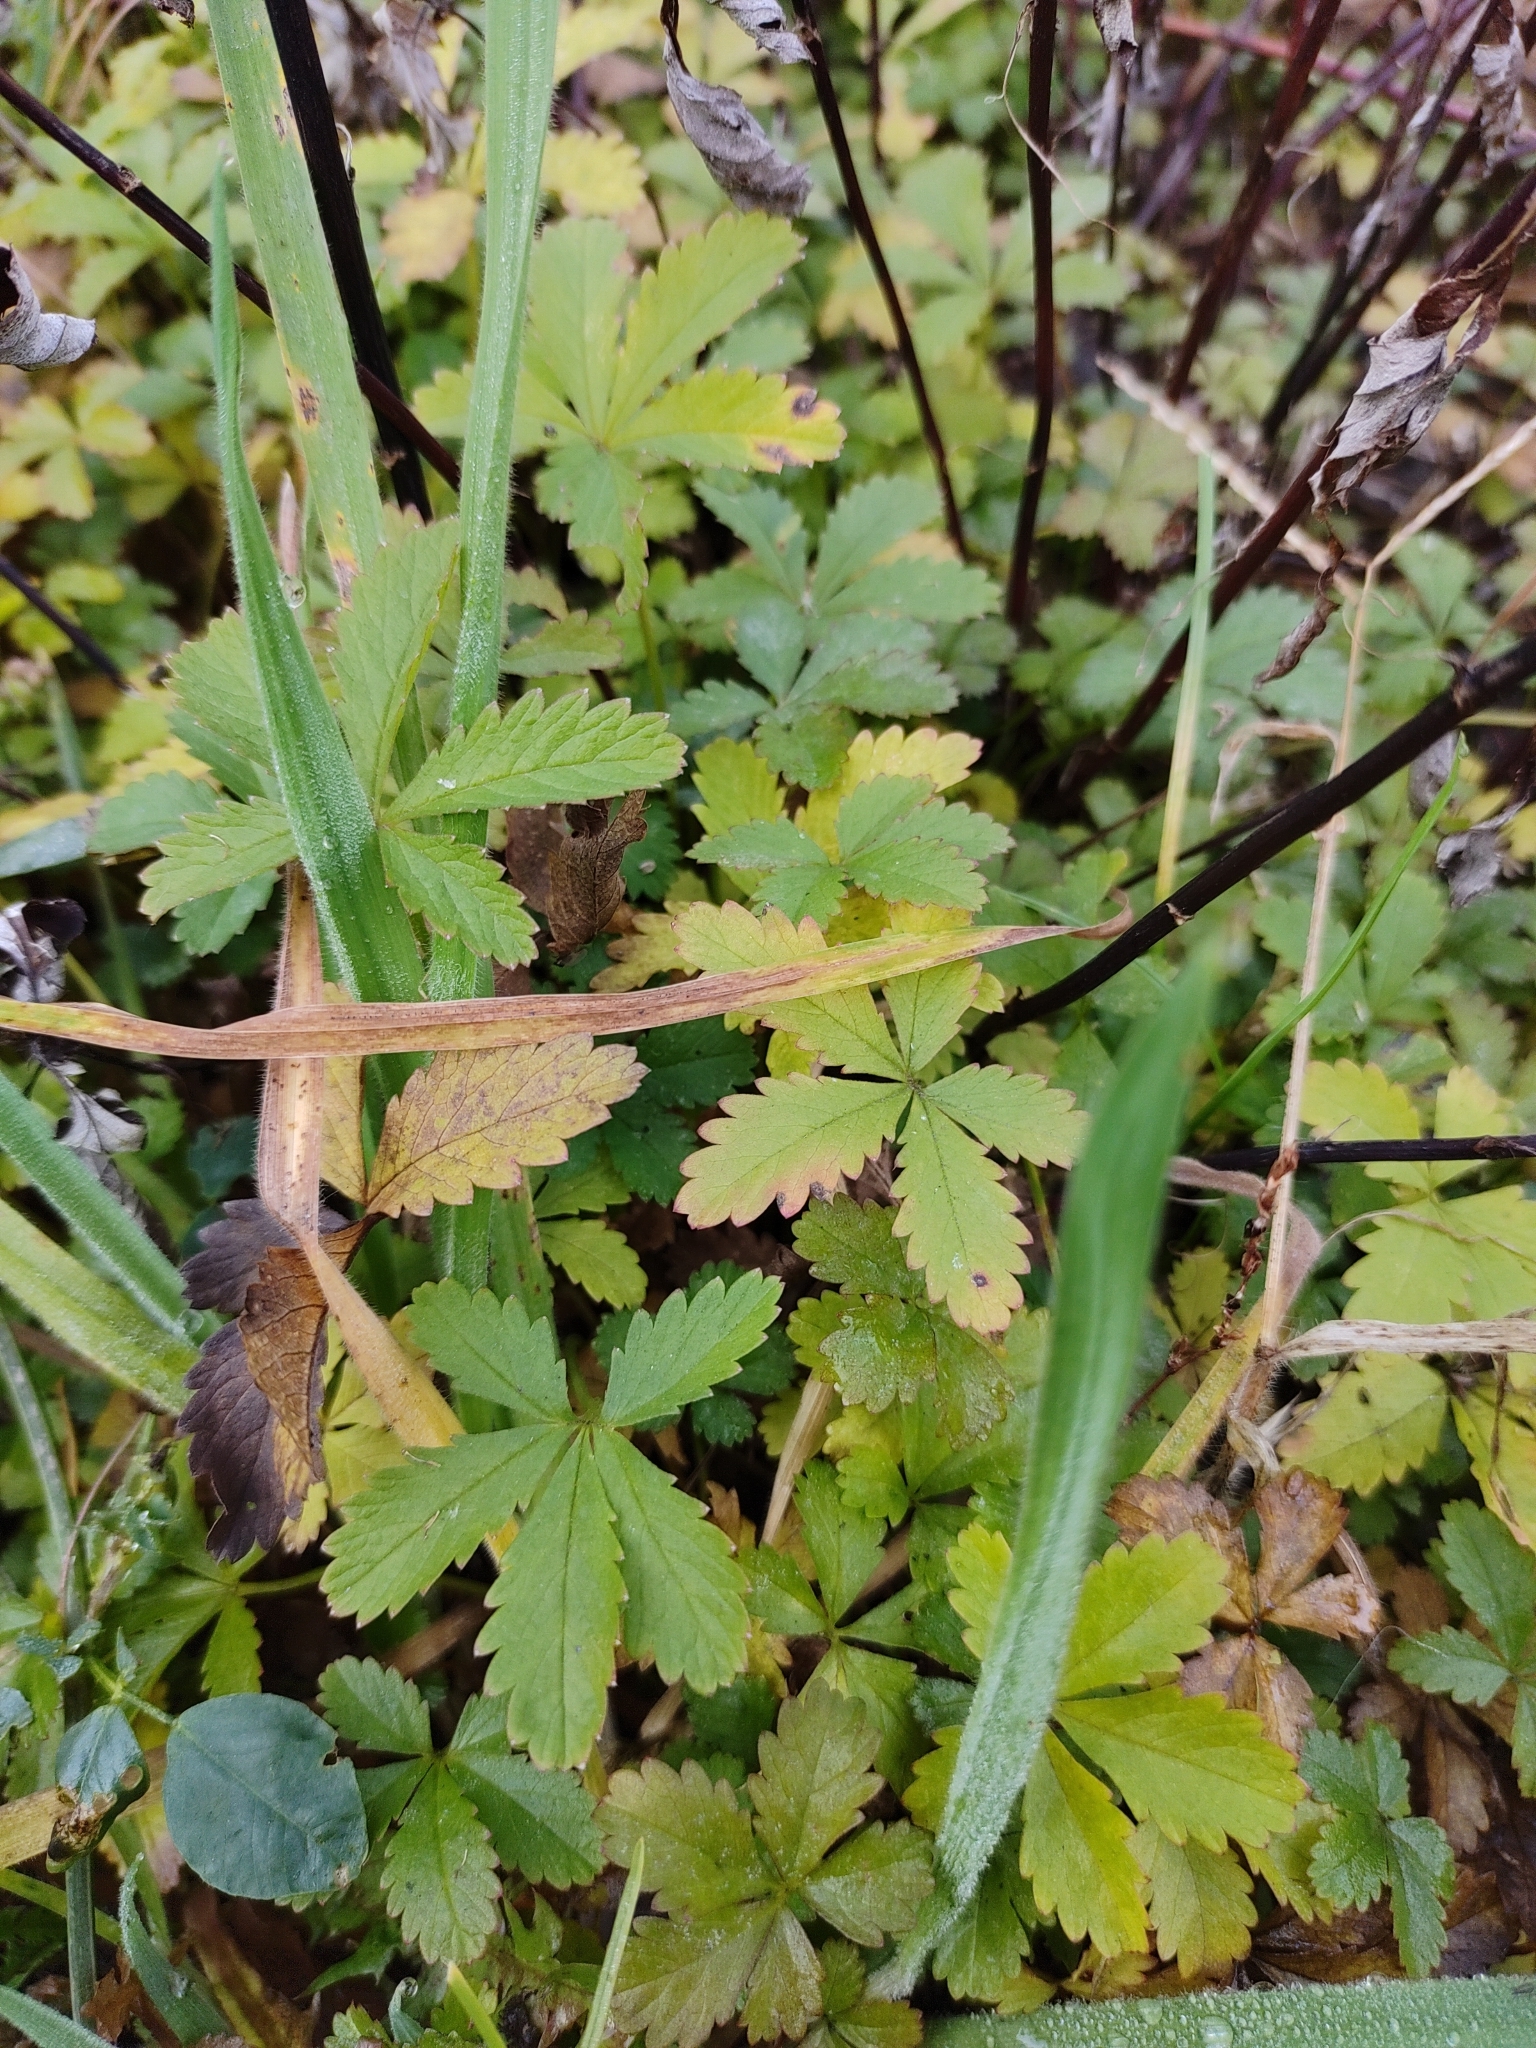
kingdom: Plantae
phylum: Tracheophyta
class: Magnoliopsida
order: Rosales
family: Rosaceae
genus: Potentilla
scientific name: Potentilla reptans
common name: Creeping cinquefoil
